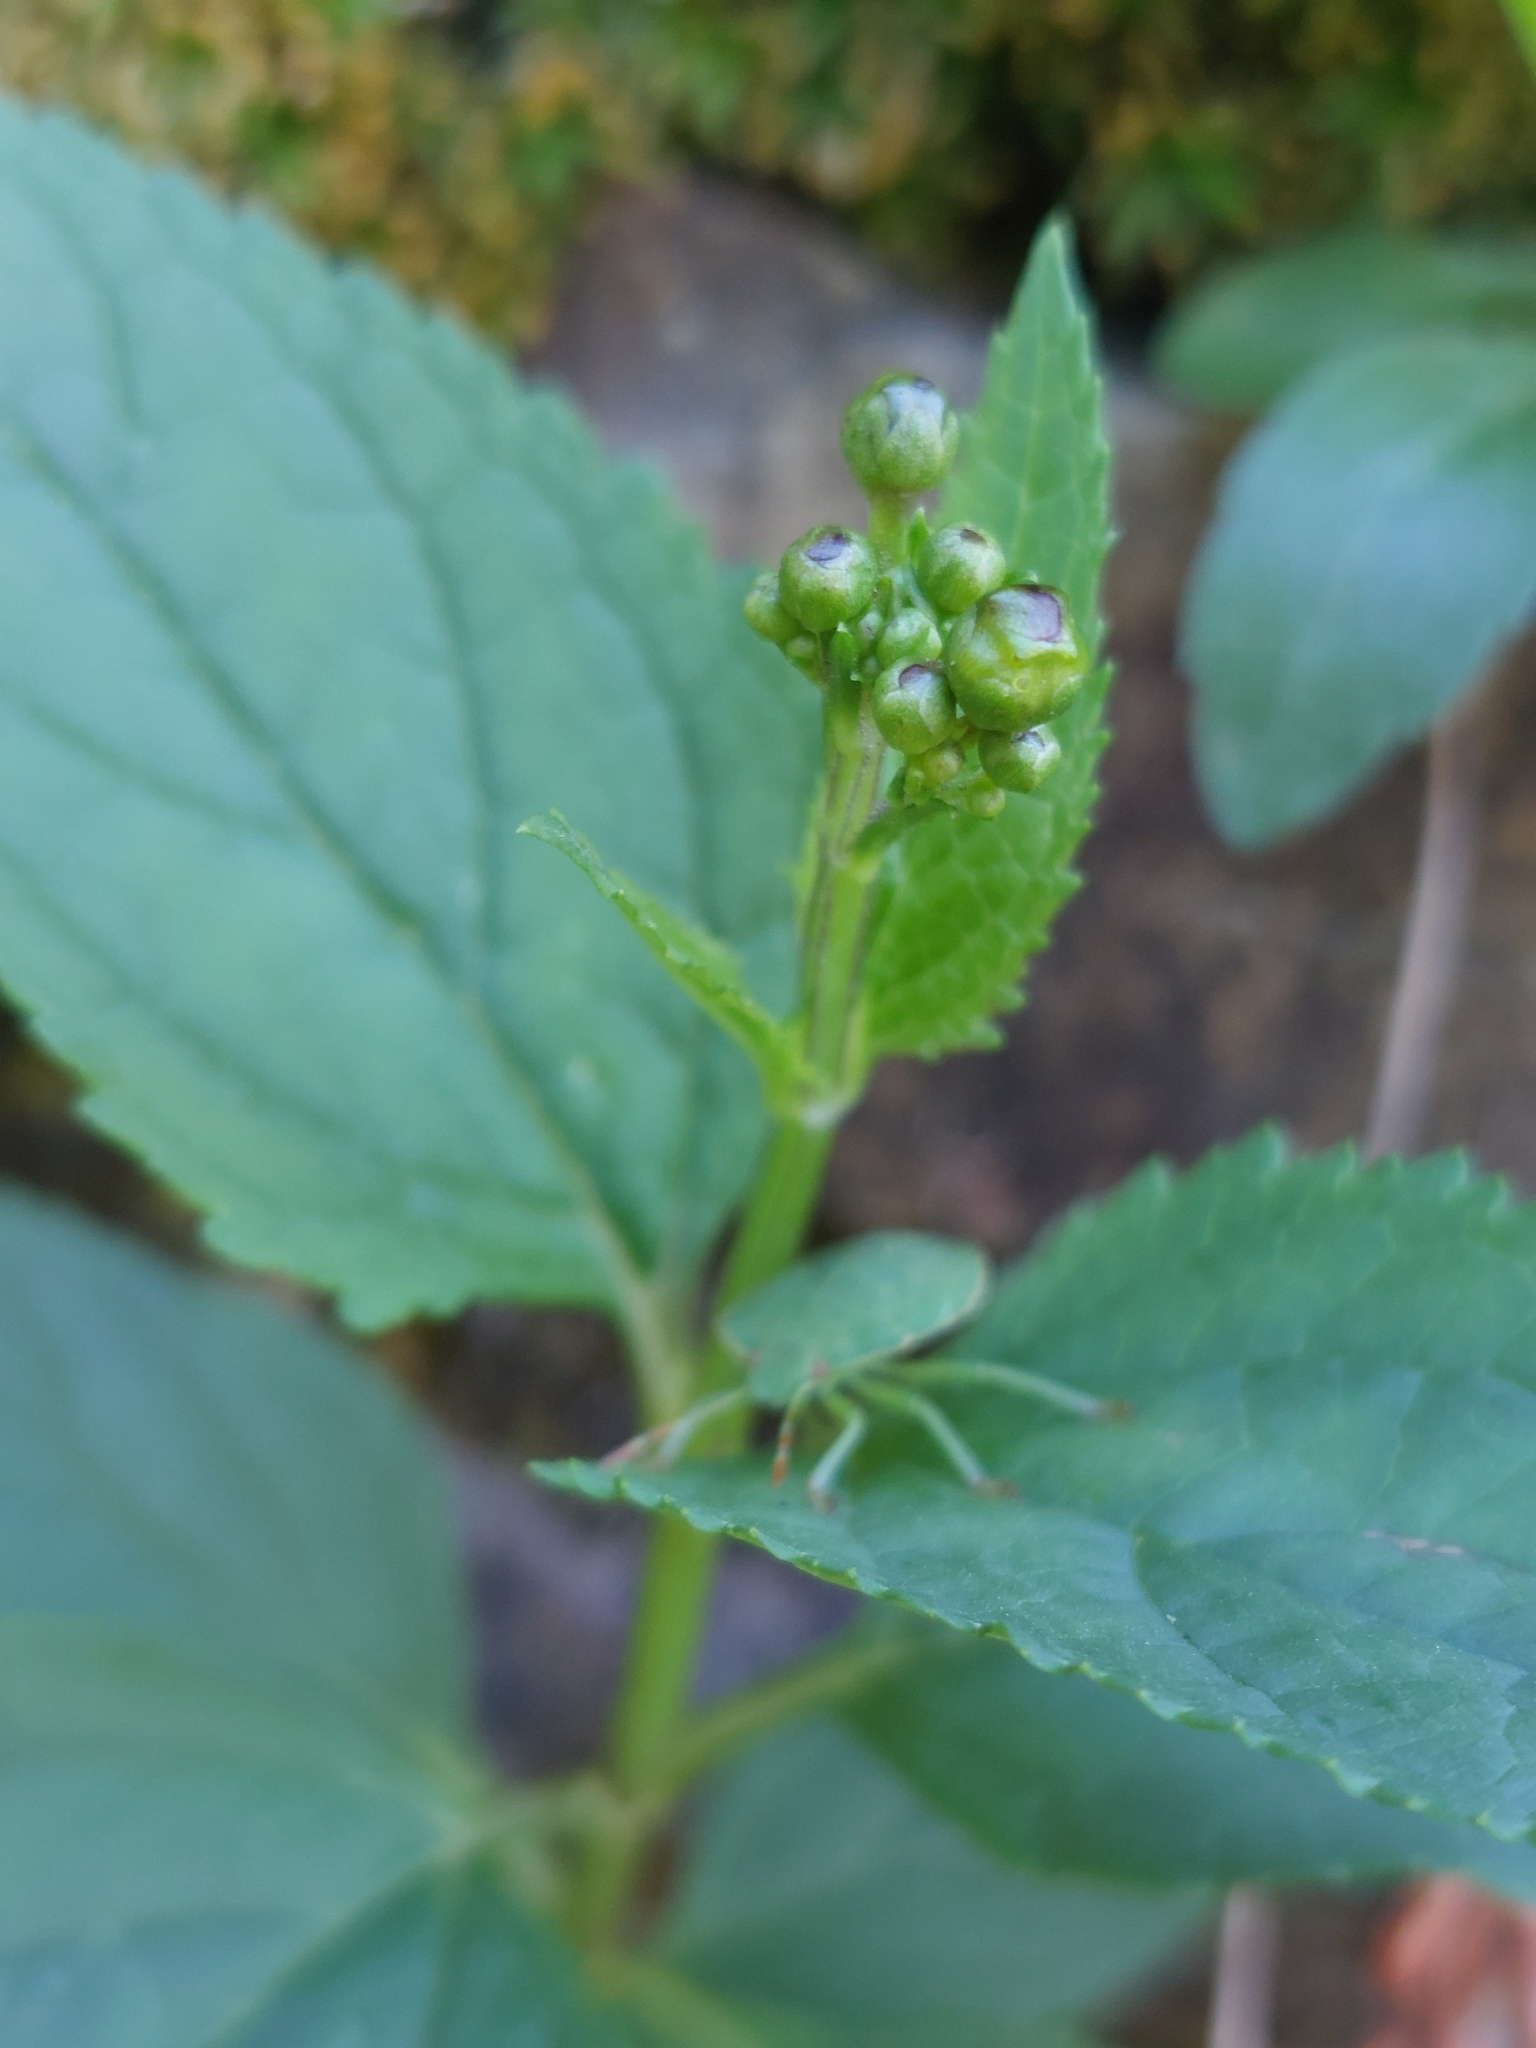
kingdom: Plantae
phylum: Tracheophyta
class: Magnoliopsida
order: Lamiales
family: Scrophulariaceae
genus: Scrophularia
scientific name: Scrophularia nodosa
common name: Common figwort
